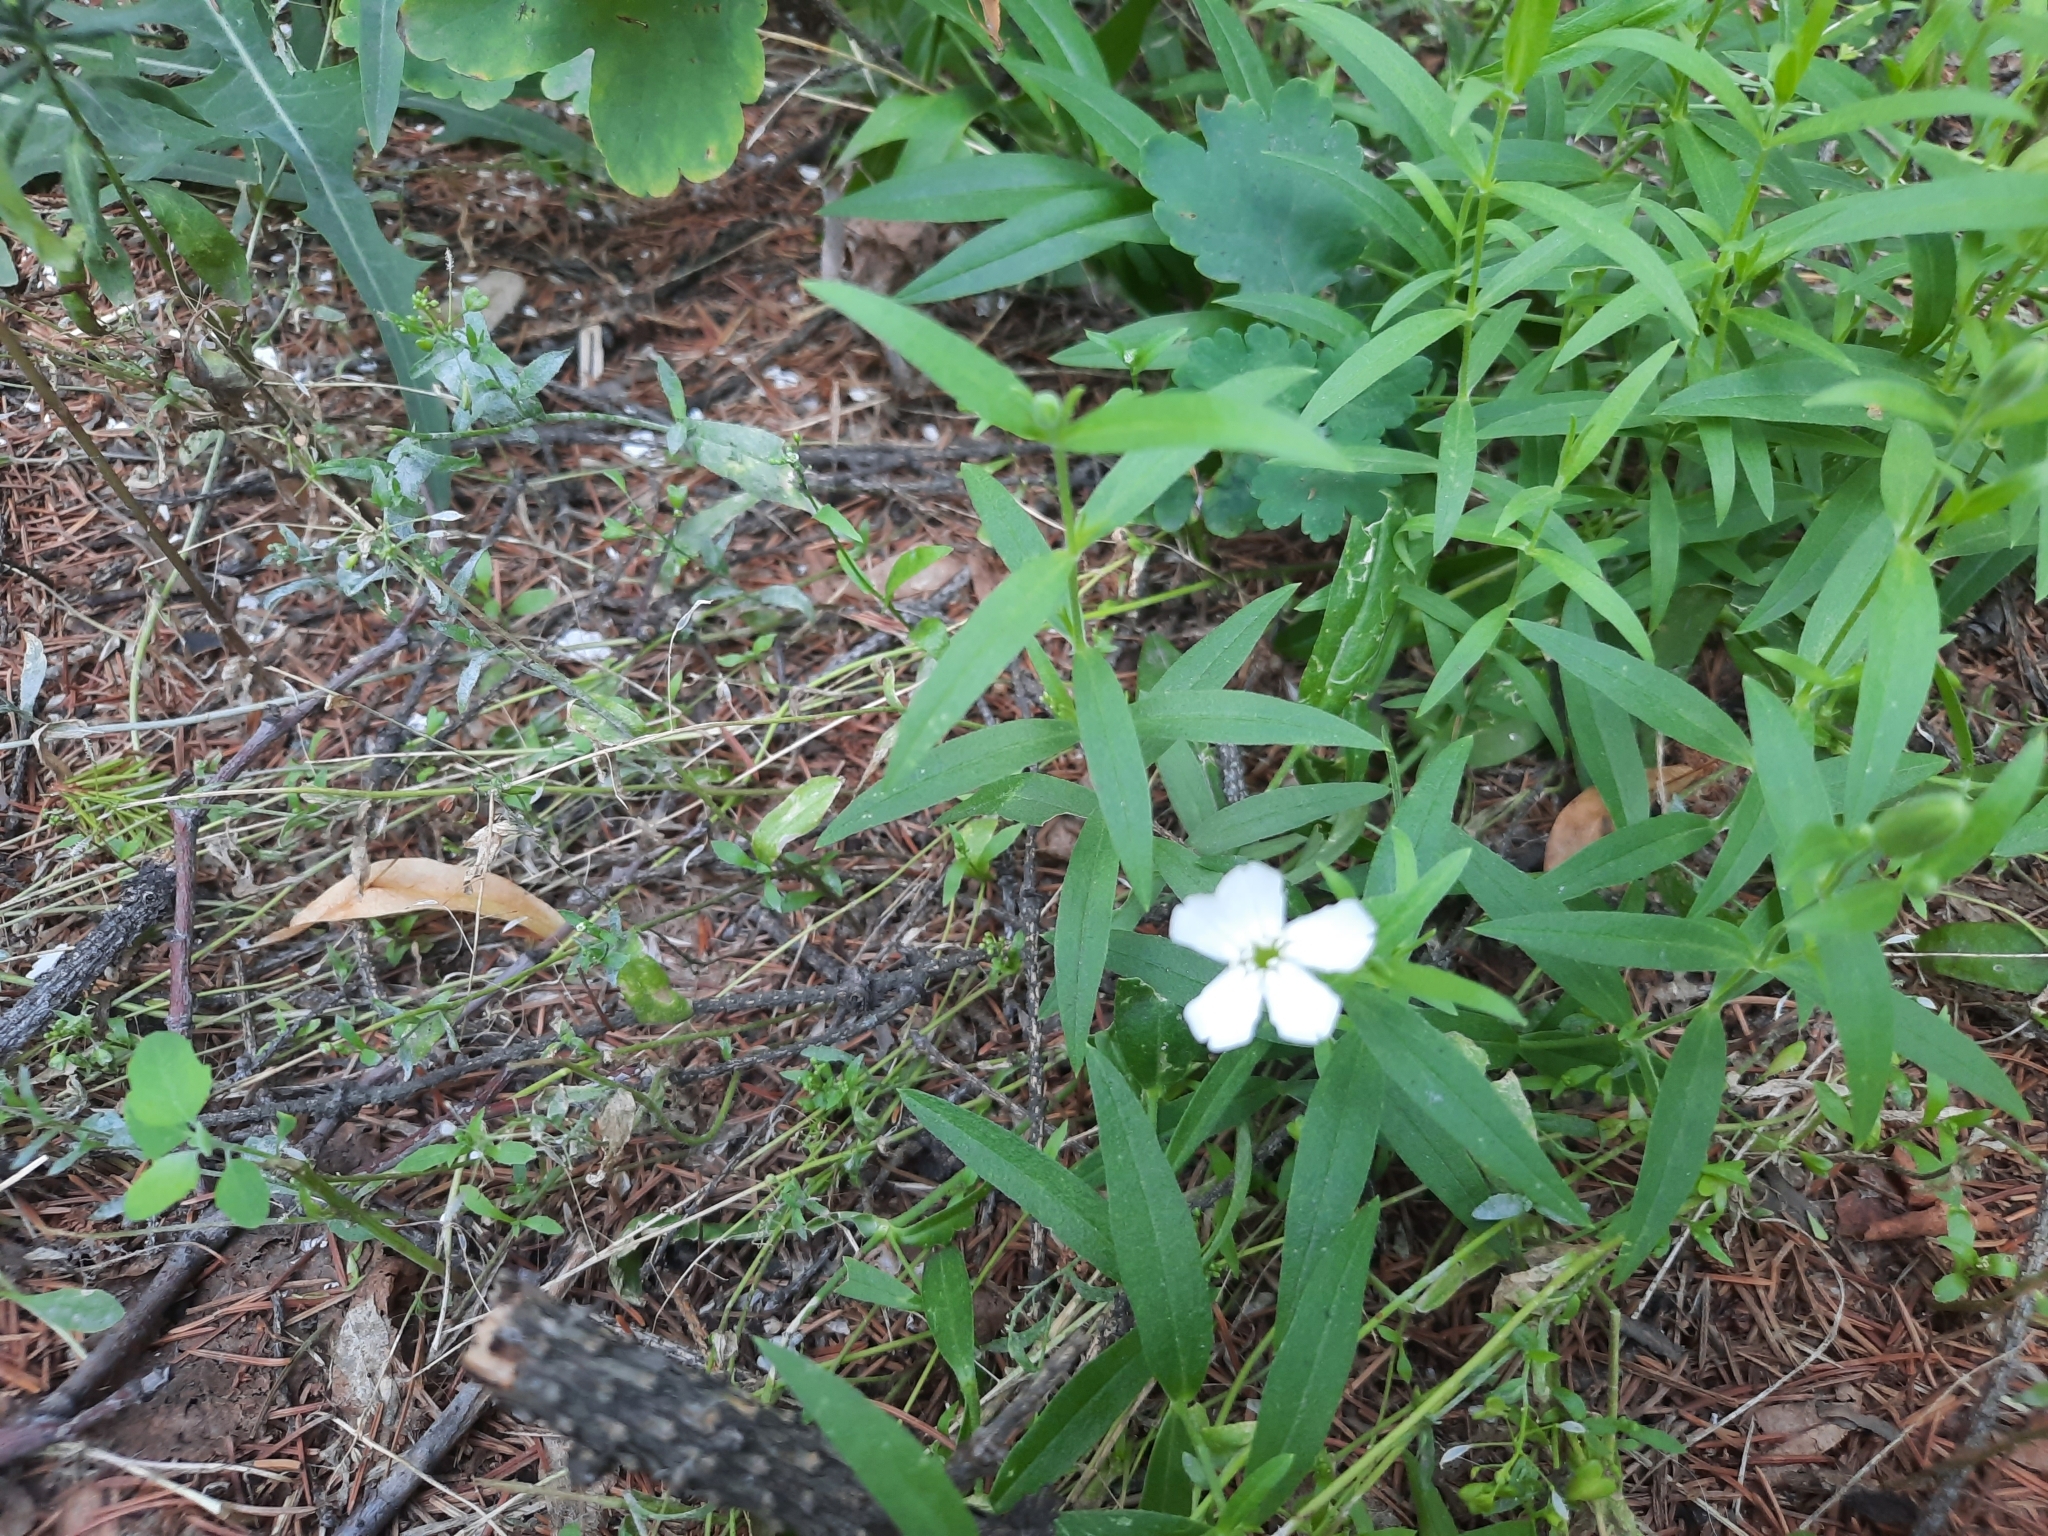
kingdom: Plantae
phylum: Tracheophyta
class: Magnoliopsida
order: Caryophyllales
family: Caryophyllaceae
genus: Silene
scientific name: Silene procumbens
